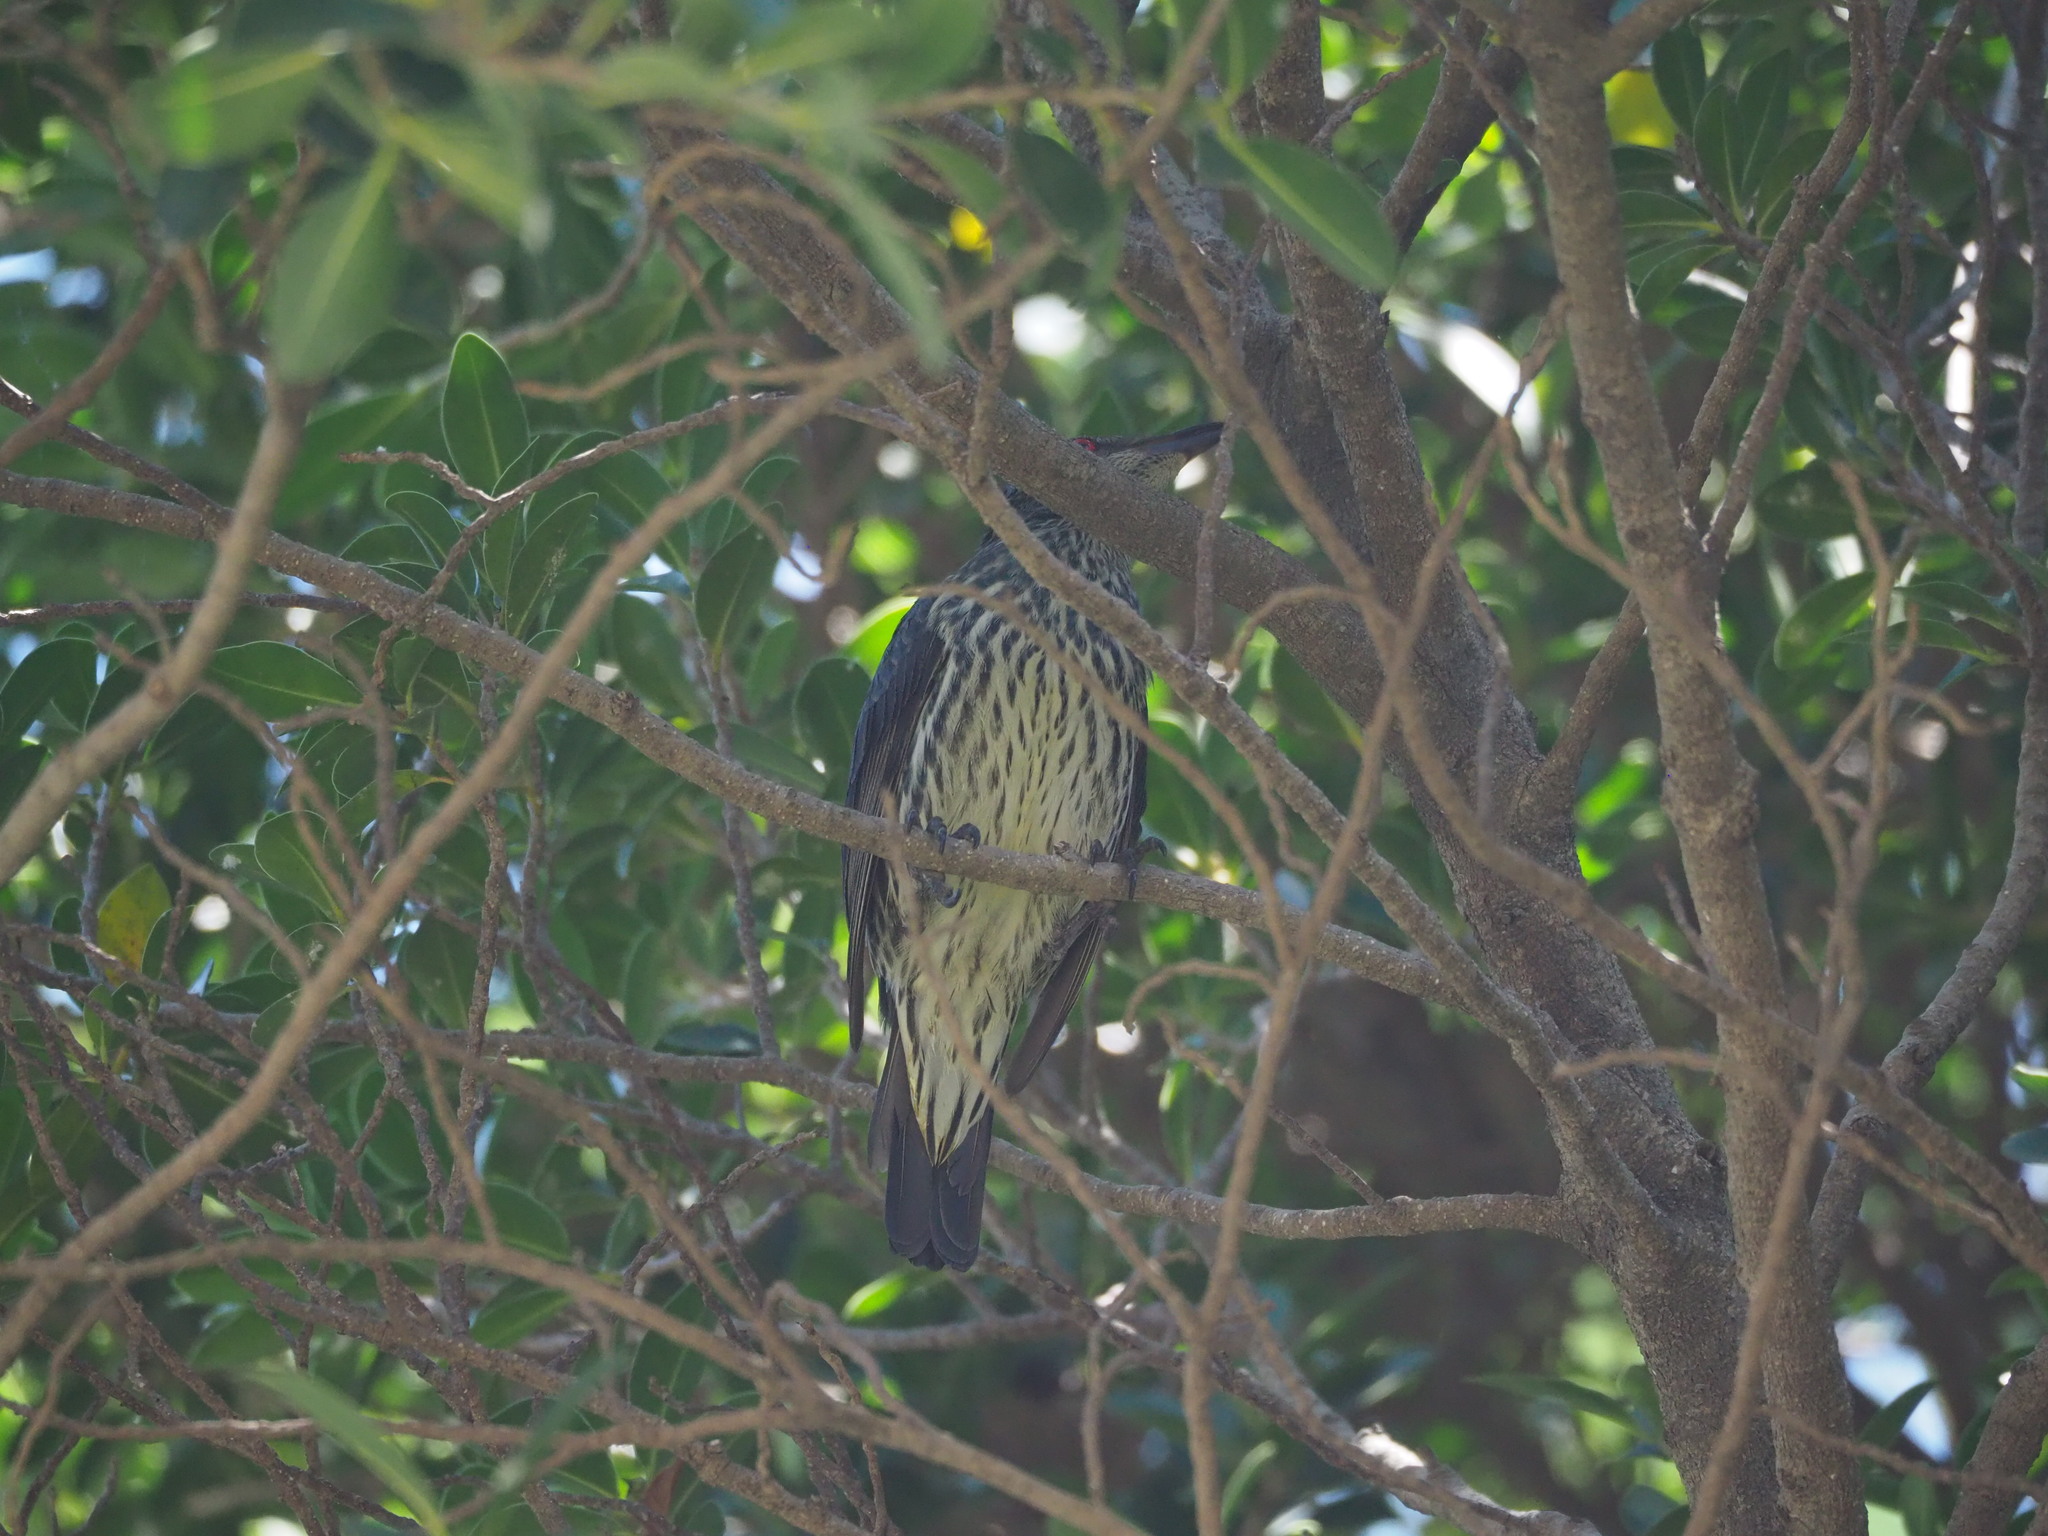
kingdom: Animalia
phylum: Chordata
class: Aves
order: Passeriformes
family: Sturnidae
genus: Aplonis
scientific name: Aplonis panayensis
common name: Asian glossy starling
